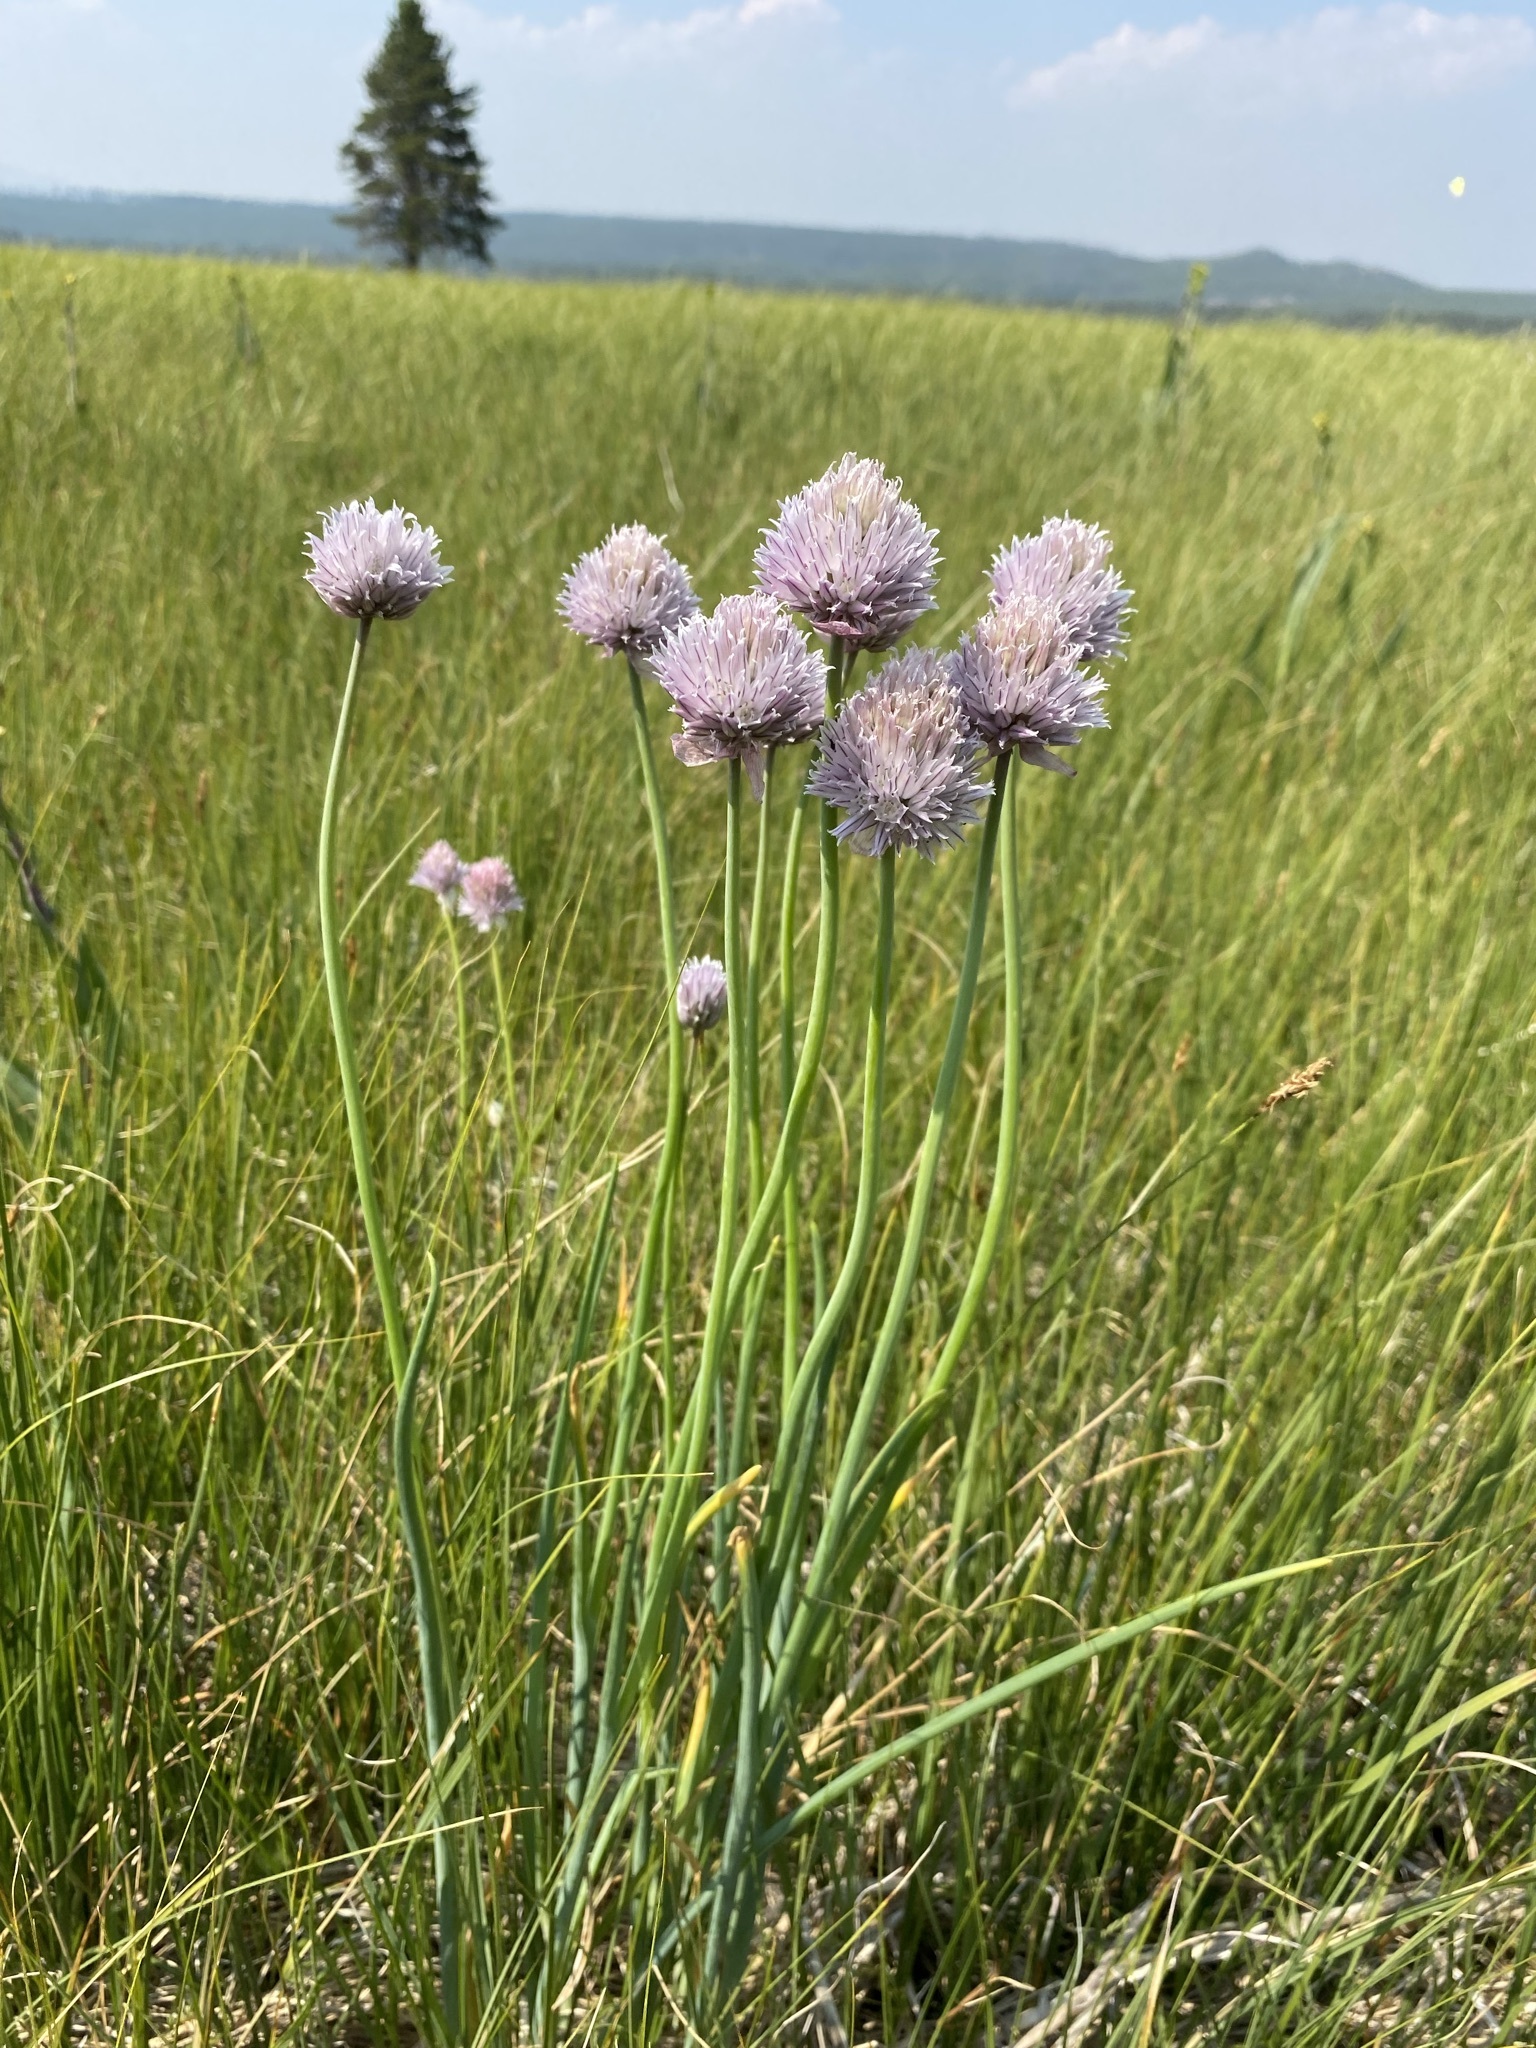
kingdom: Plantae
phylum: Tracheophyta
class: Liliopsida
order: Asparagales
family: Amaryllidaceae
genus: Allium
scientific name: Allium schoenoprasum
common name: Chives
